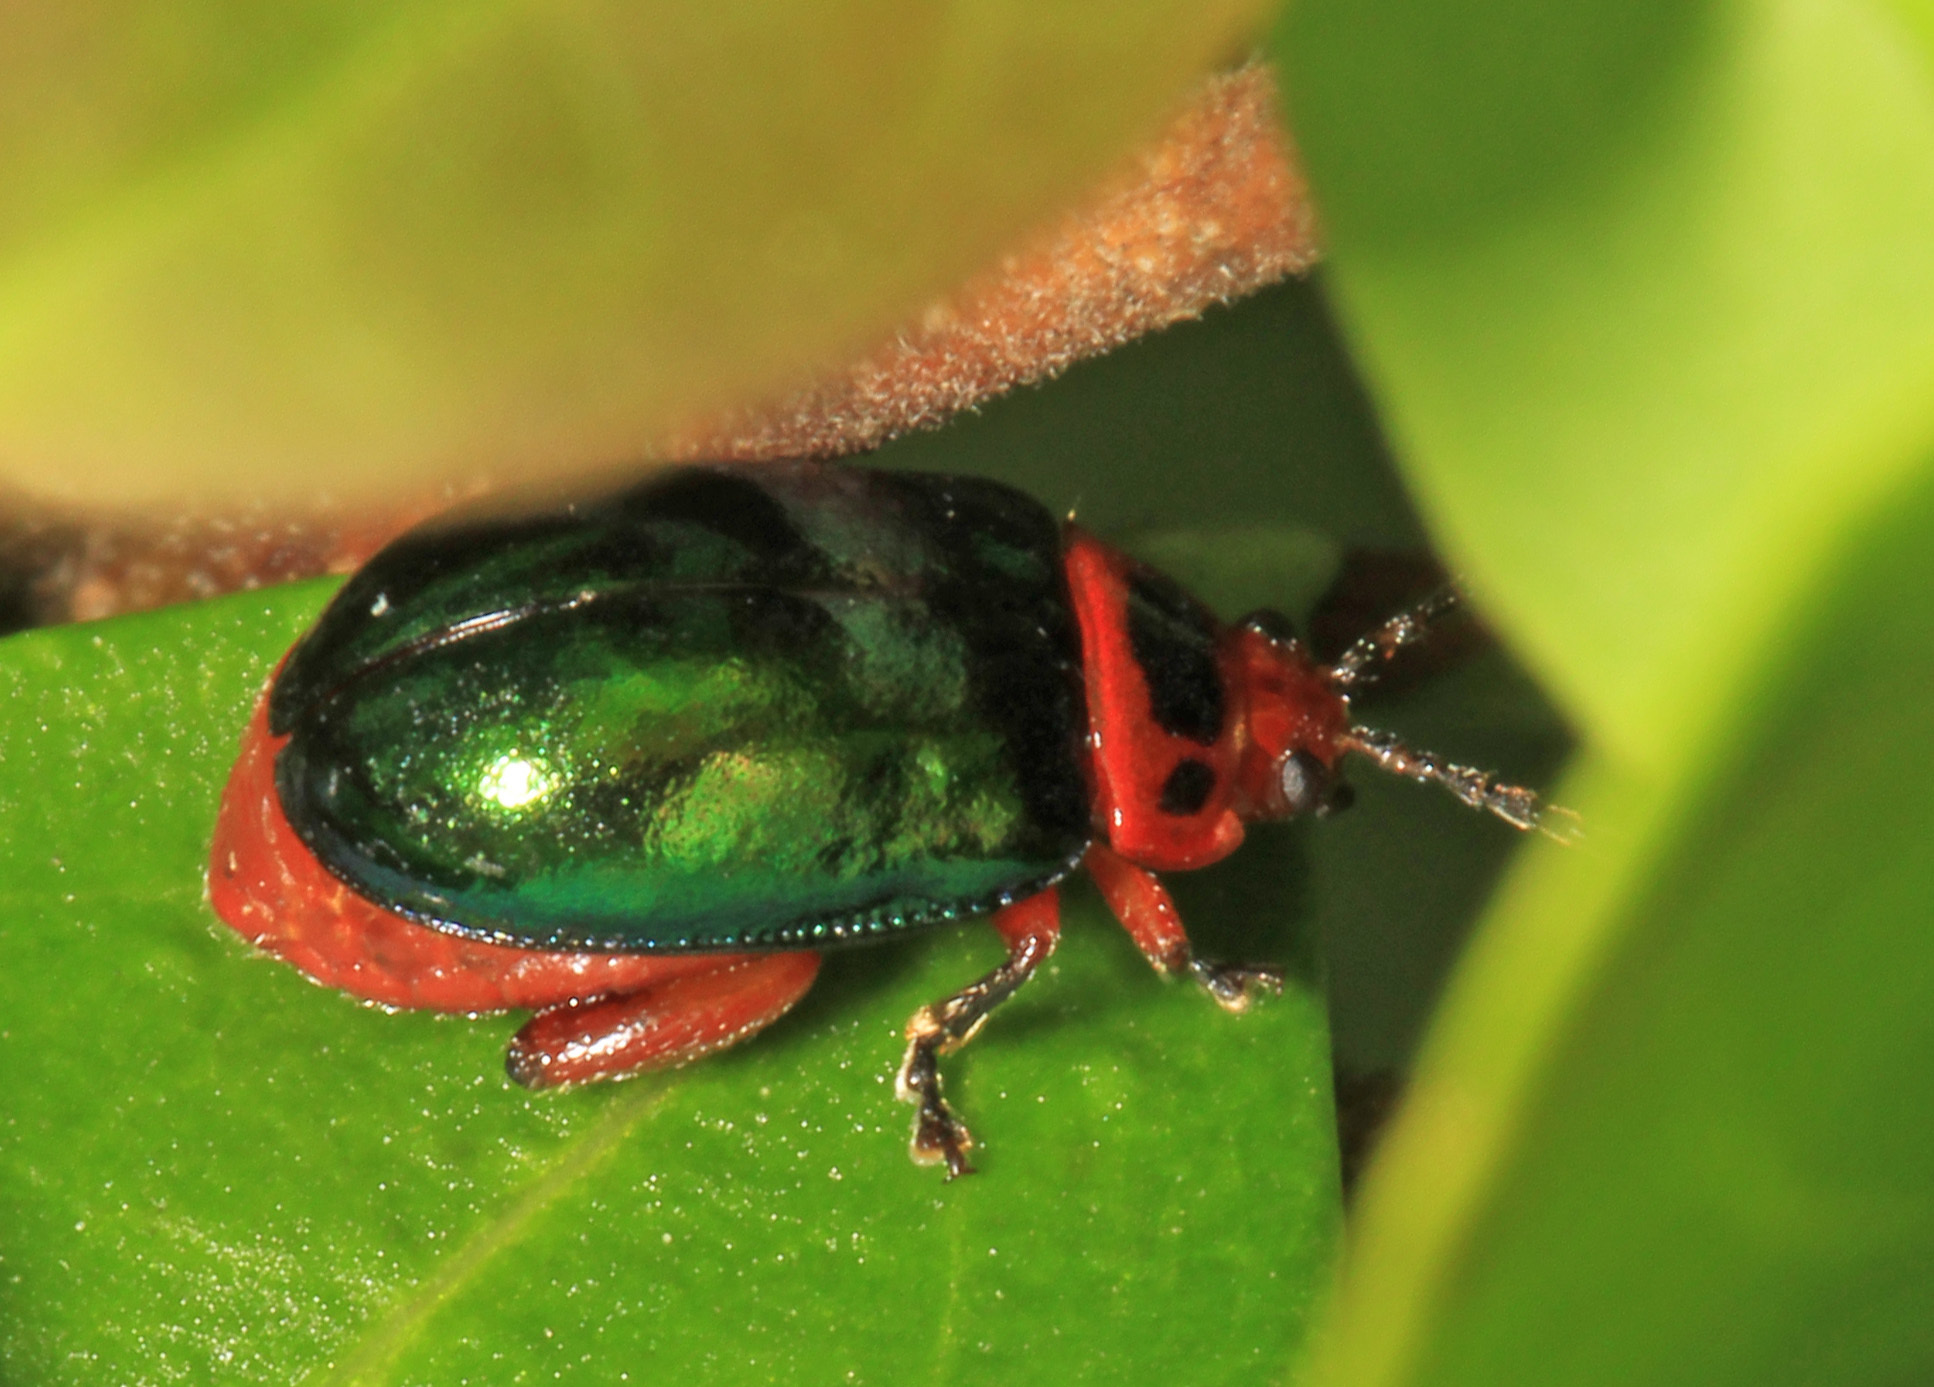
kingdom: Animalia
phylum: Arthropoda
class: Insecta
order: Coleoptera
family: Chrysomelidae
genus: Kuschelina
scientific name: Kuschelina gibbitarsa
